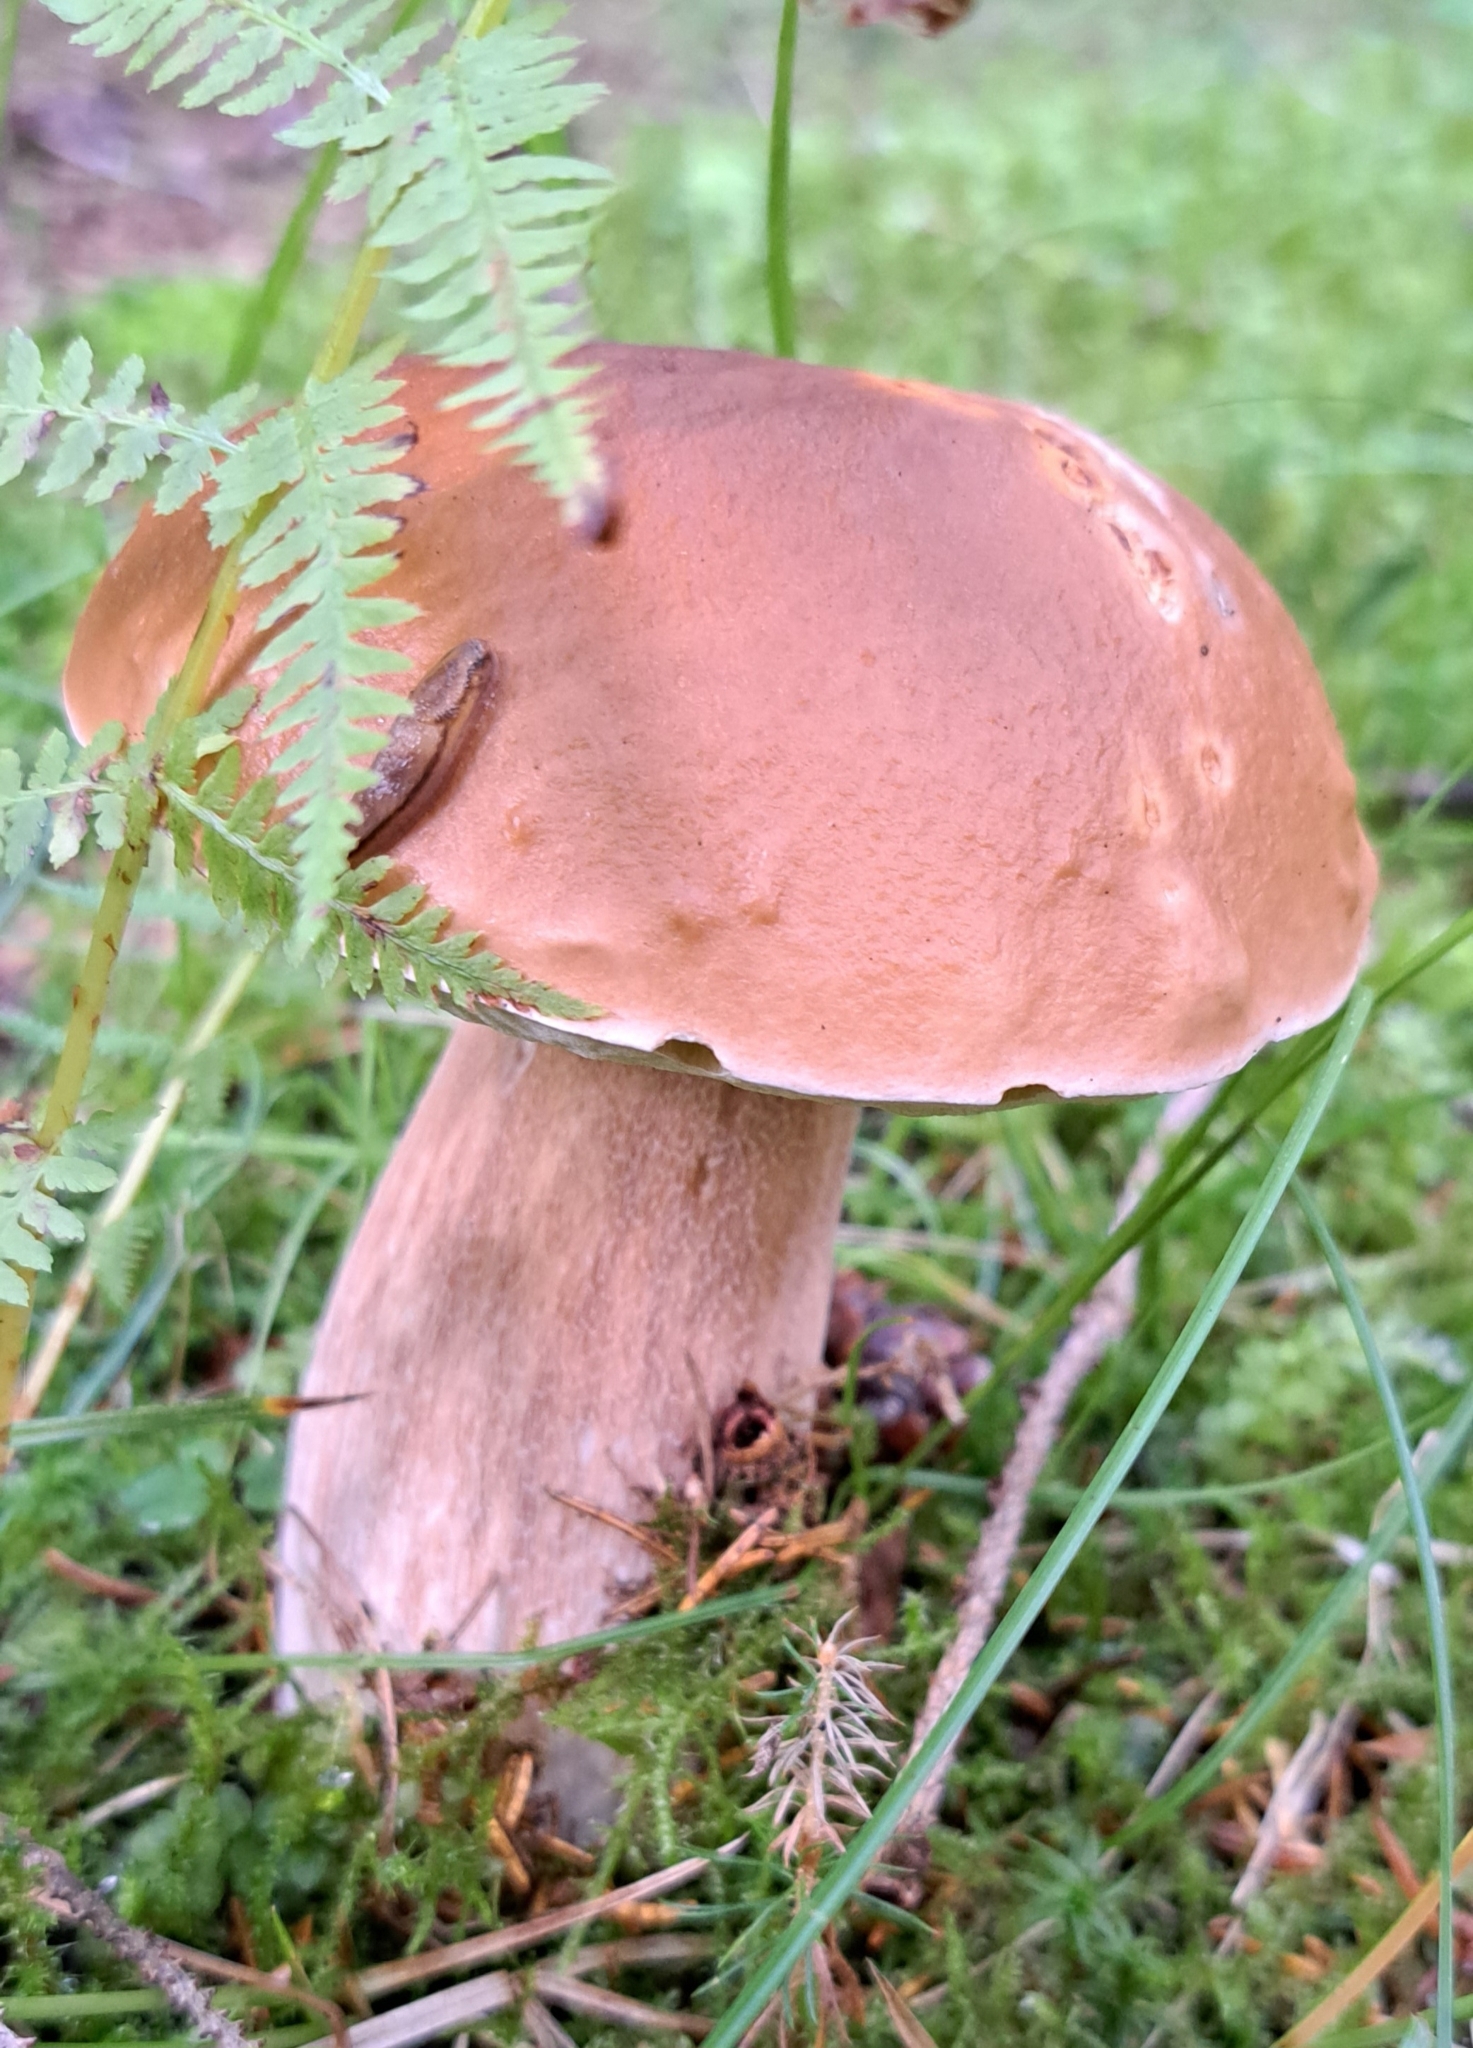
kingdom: Fungi
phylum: Basidiomycota
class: Agaricomycetes
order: Boletales
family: Boletaceae
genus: Boletus
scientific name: Boletus edulis
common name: Cep
